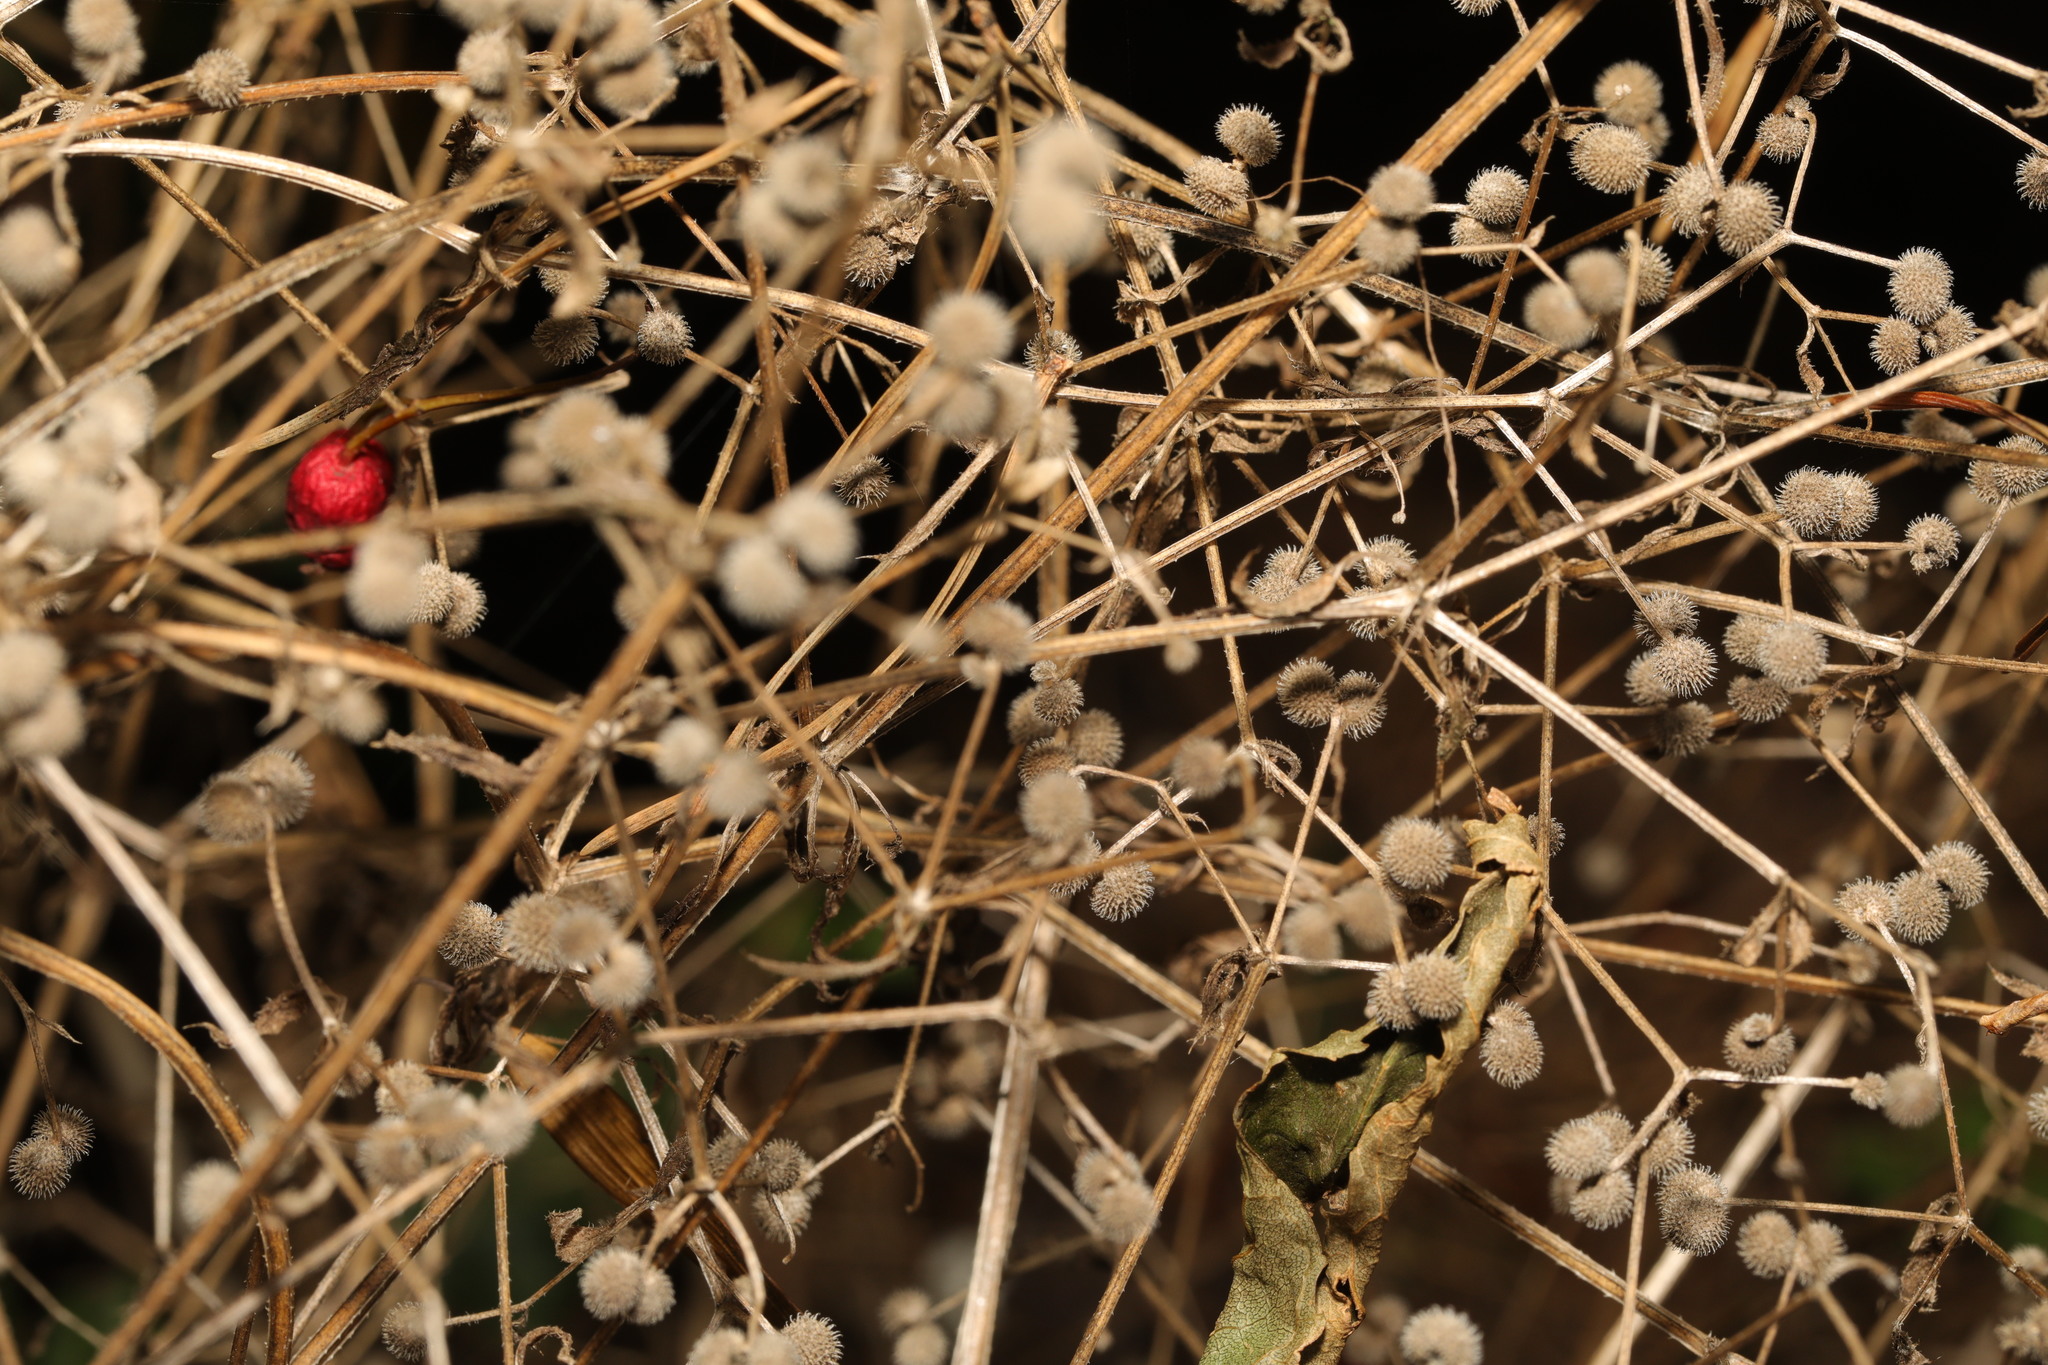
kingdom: Plantae
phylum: Tracheophyta
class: Magnoliopsida
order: Gentianales
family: Rubiaceae
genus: Galium
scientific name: Galium aparine
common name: Cleavers
